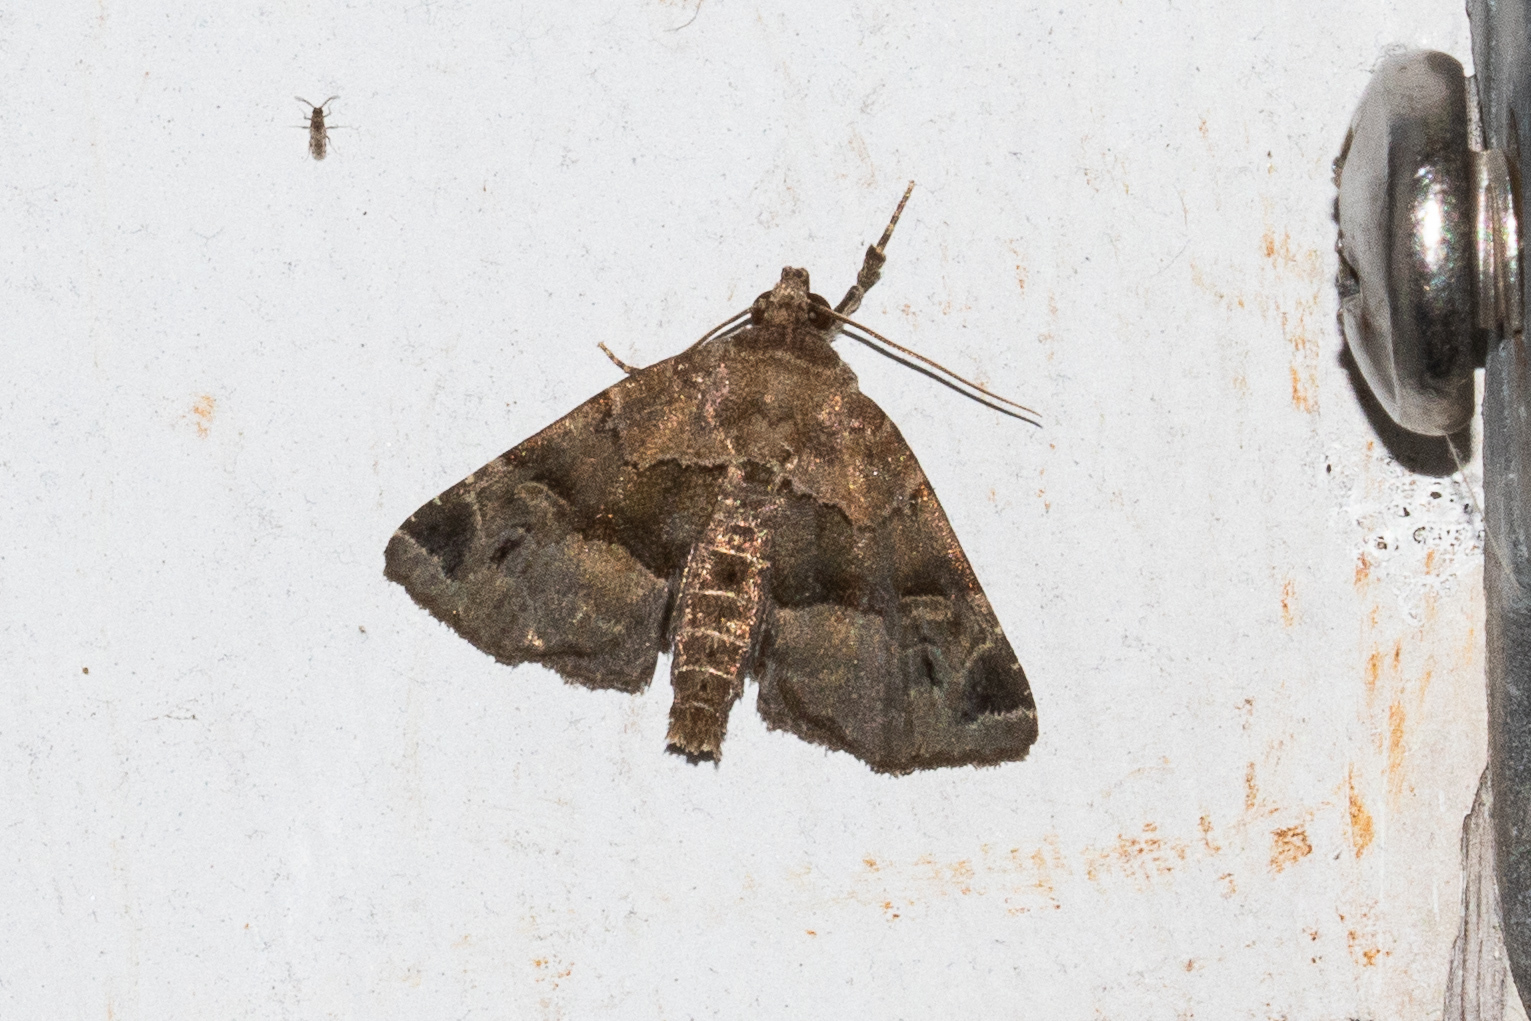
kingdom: Animalia
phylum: Arthropoda
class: Insecta
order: Lepidoptera
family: Noctuidae
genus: Niphonyx
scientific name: Niphonyx segregata
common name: Hops angleshade moth
